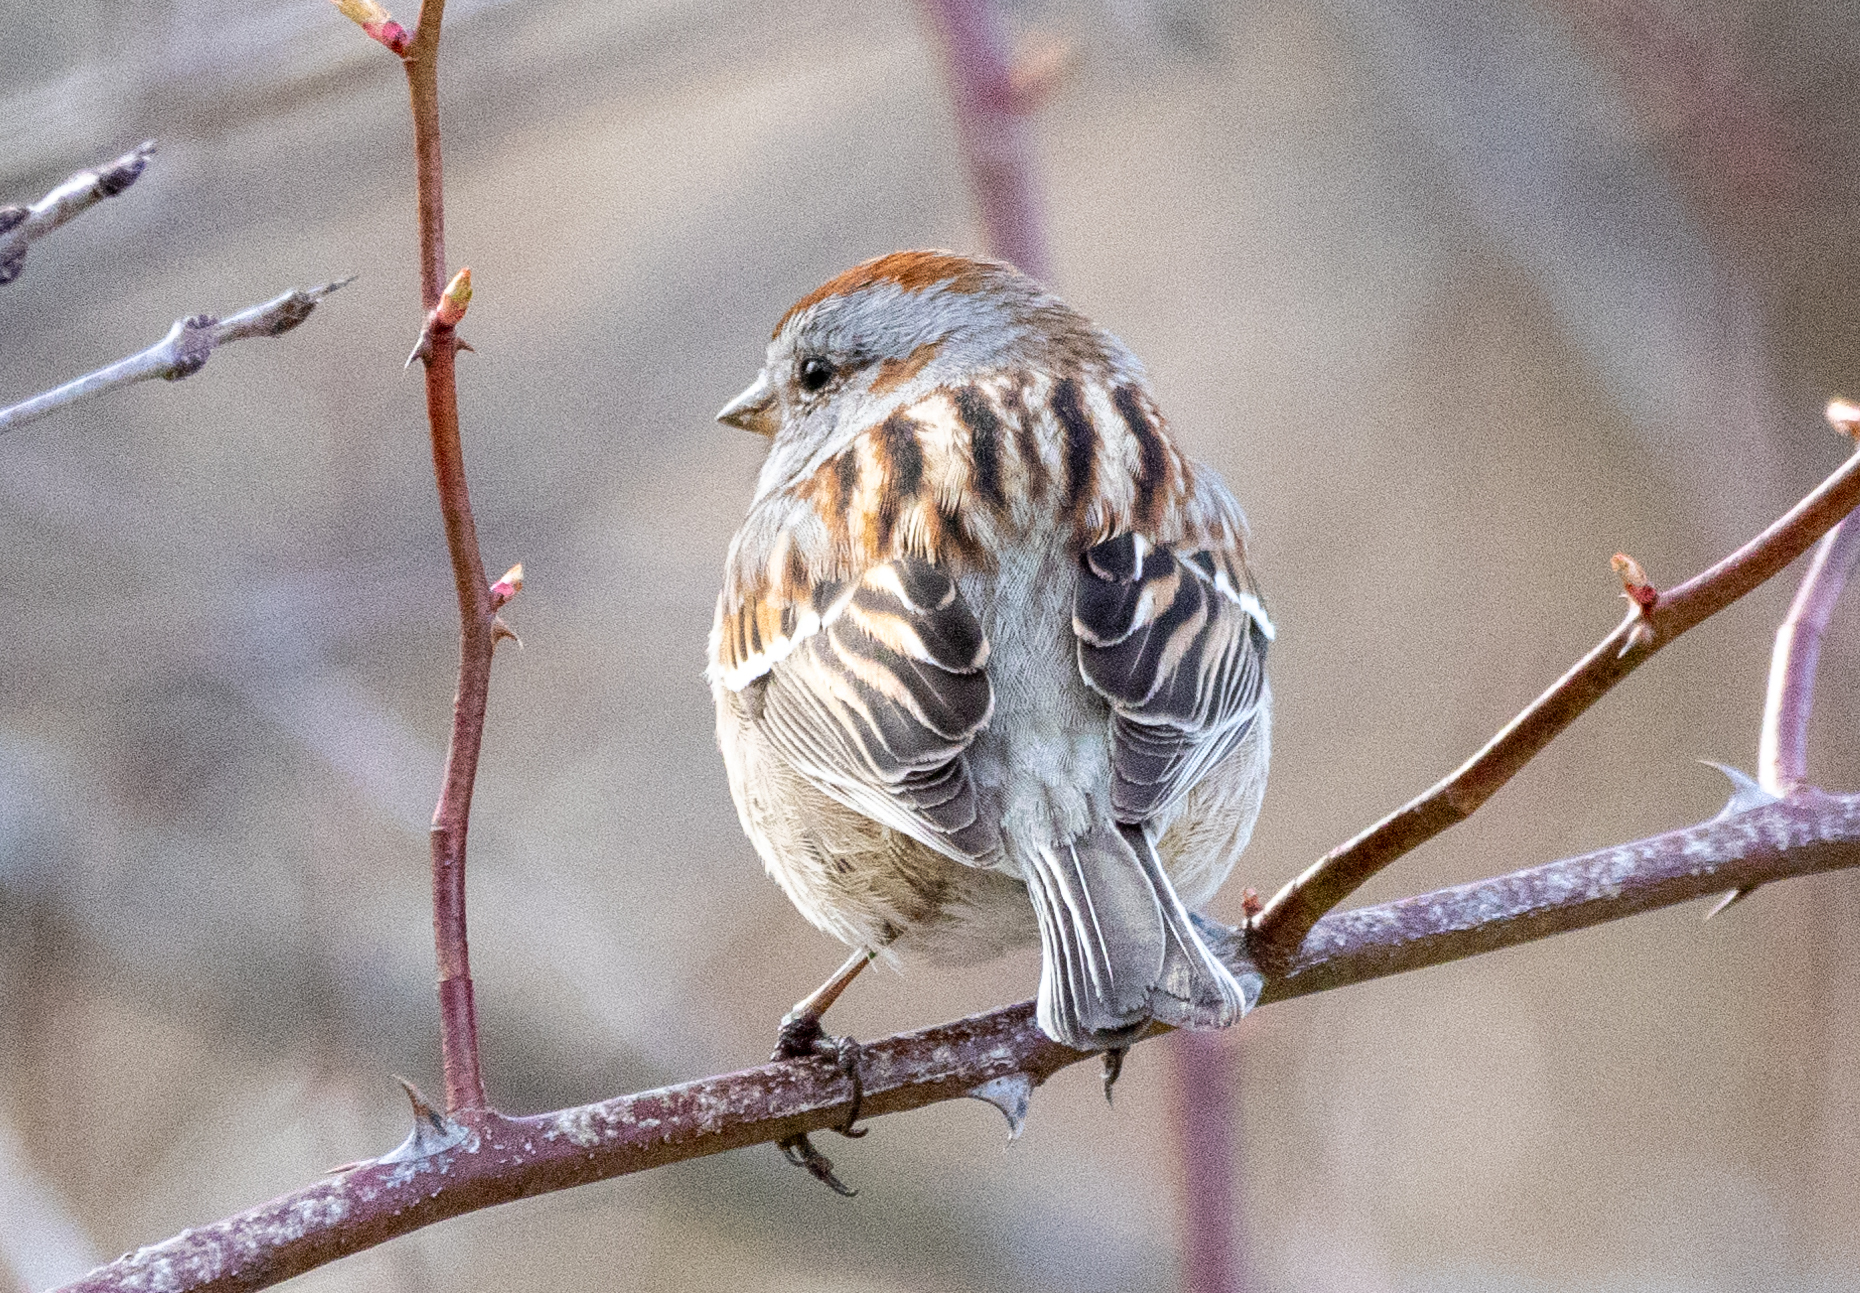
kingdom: Animalia
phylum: Chordata
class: Aves
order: Passeriformes
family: Passerellidae
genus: Spizelloides
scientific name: Spizelloides arborea
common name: American tree sparrow
